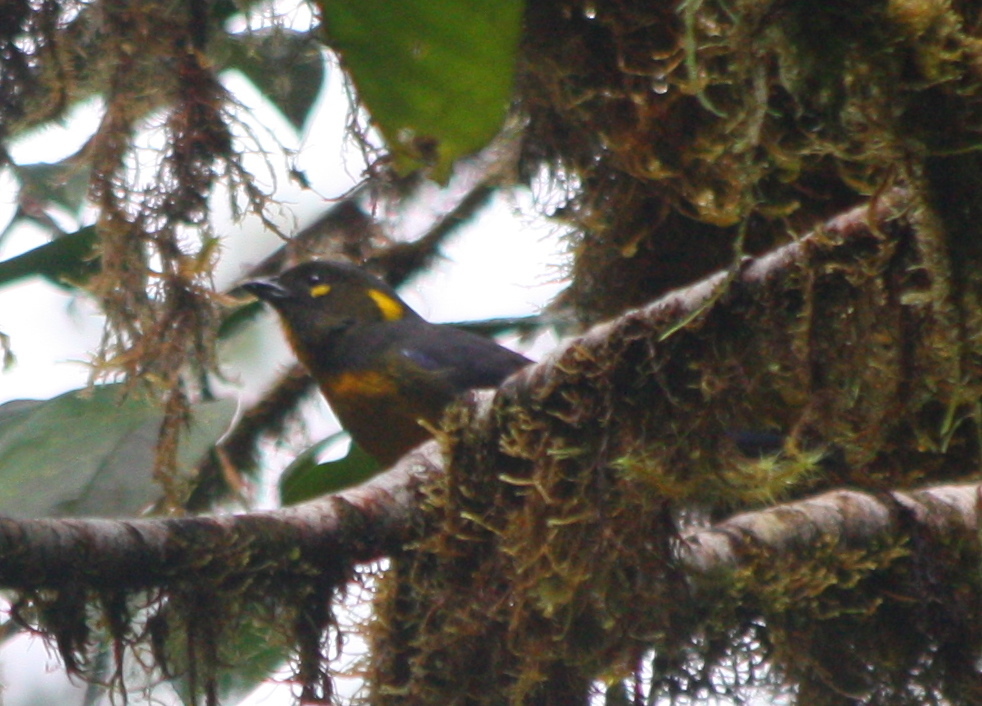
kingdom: Animalia
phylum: Chordata
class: Aves
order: Passeriformes
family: Thraupidae
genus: Anisognathus
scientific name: Anisognathus lacrymosus
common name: Lacrimose mountain-tanager
